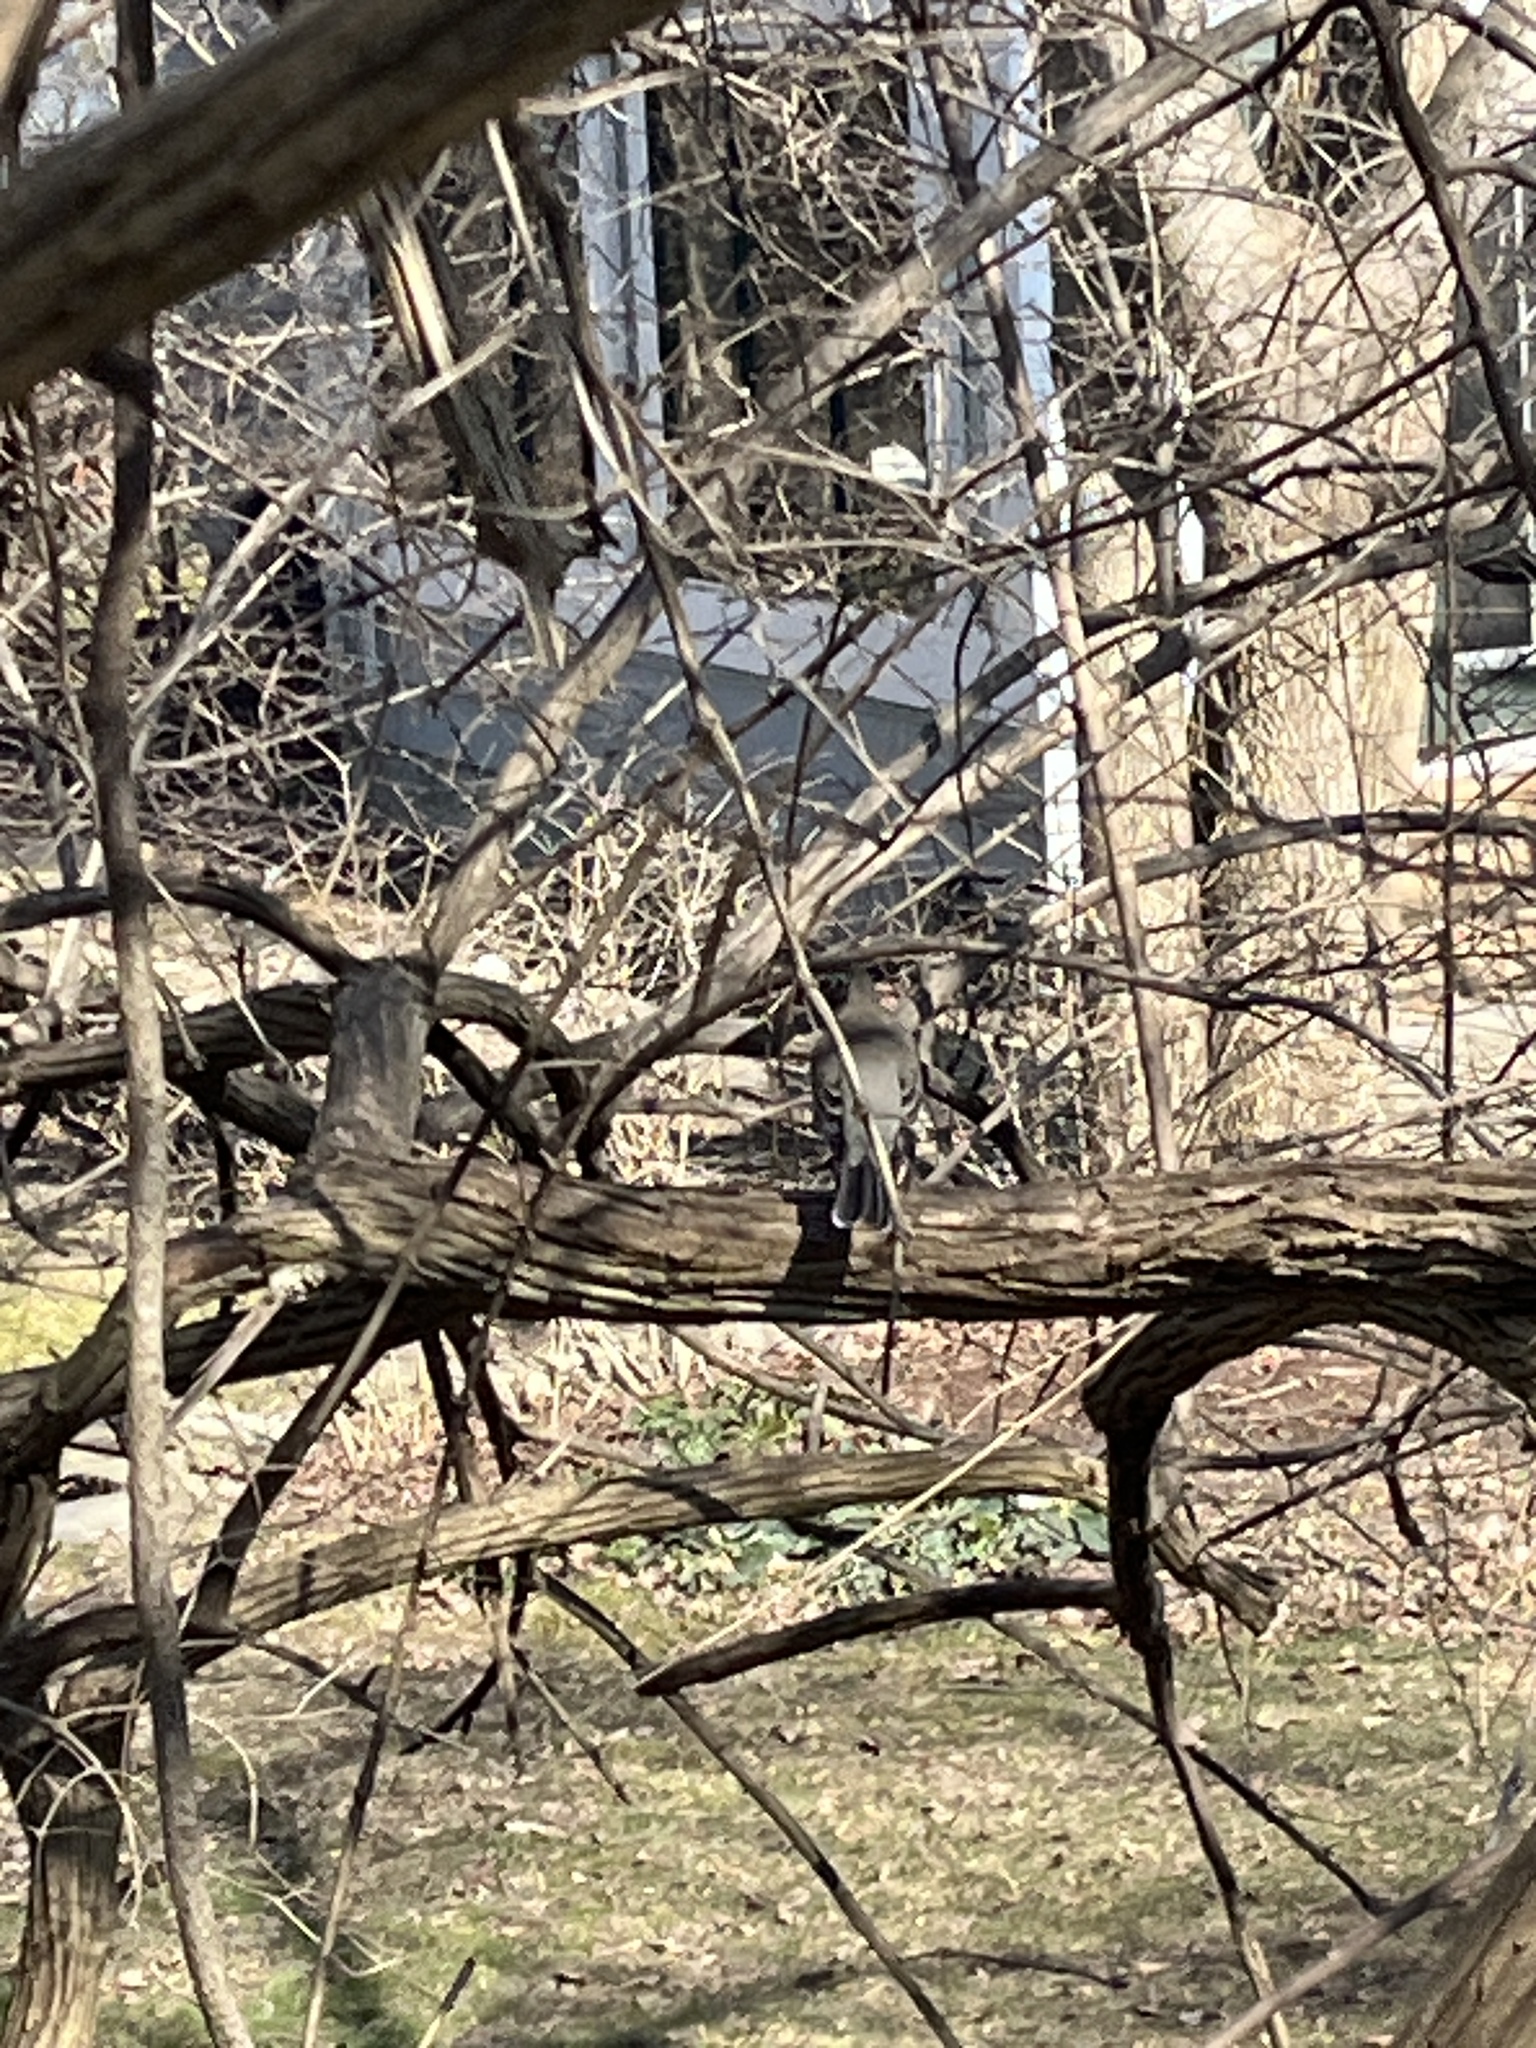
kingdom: Animalia
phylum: Chordata
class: Aves
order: Passeriformes
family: Turdidae
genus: Turdus
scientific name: Turdus migratorius
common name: American robin
